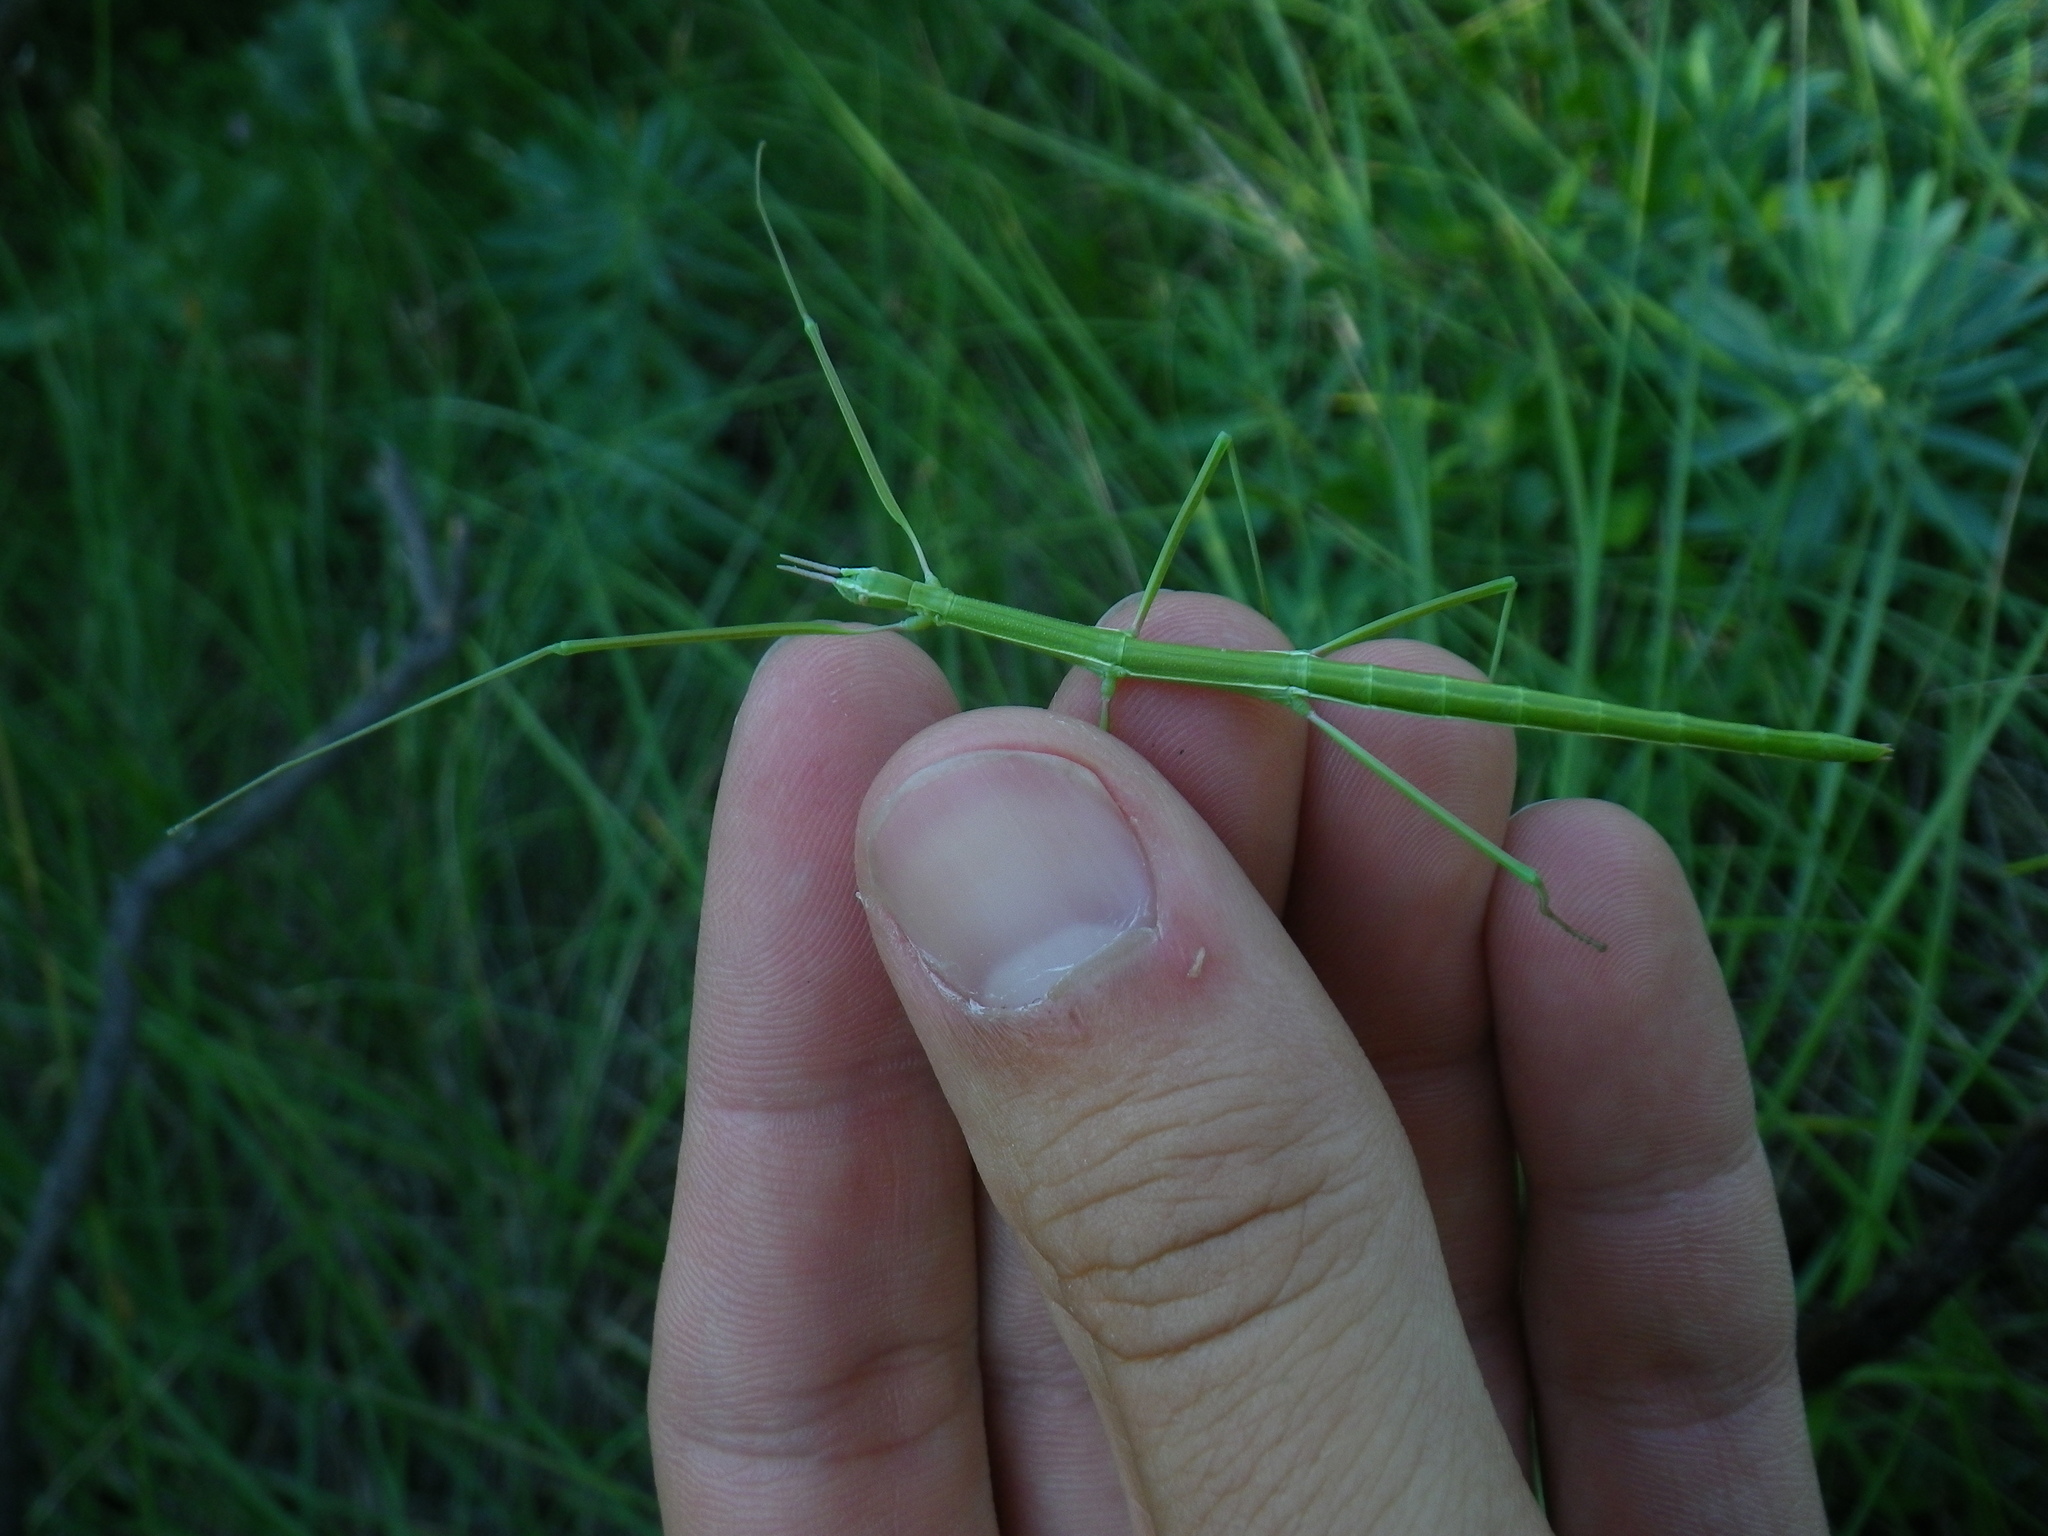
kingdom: Animalia
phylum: Arthropoda
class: Insecta
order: Phasmida
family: Bacillidae
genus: Pijnackeria
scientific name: Pijnackeria masettii
